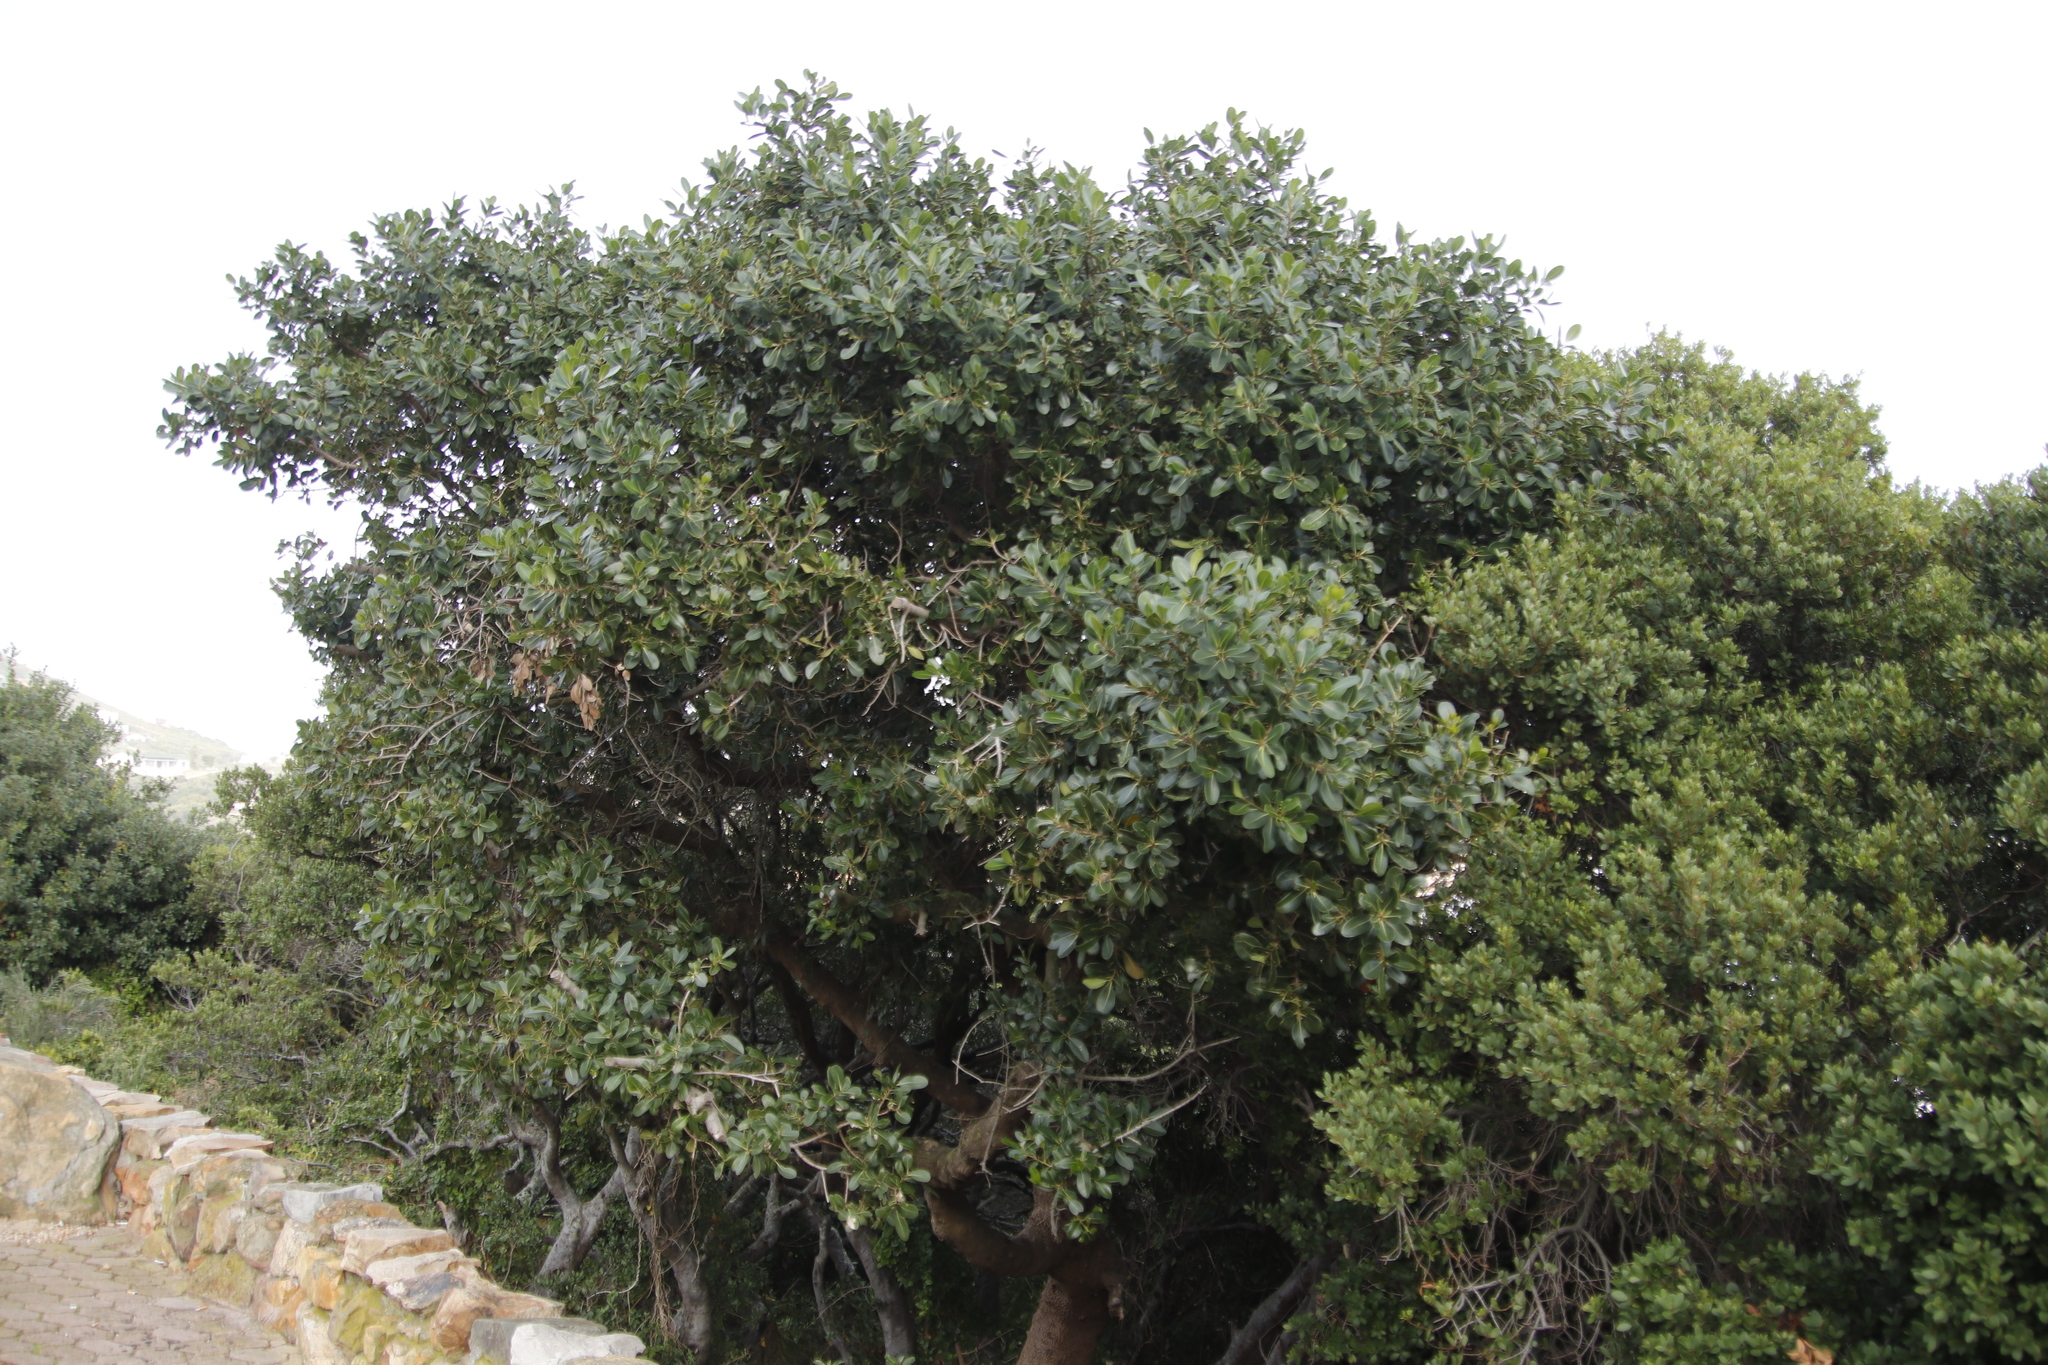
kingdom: Plantae
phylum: Tracheophyta
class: Magnoliopsida
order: Ericales
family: Sapotaceae
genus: Sideroxylon
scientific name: Sideroxylon inerme
